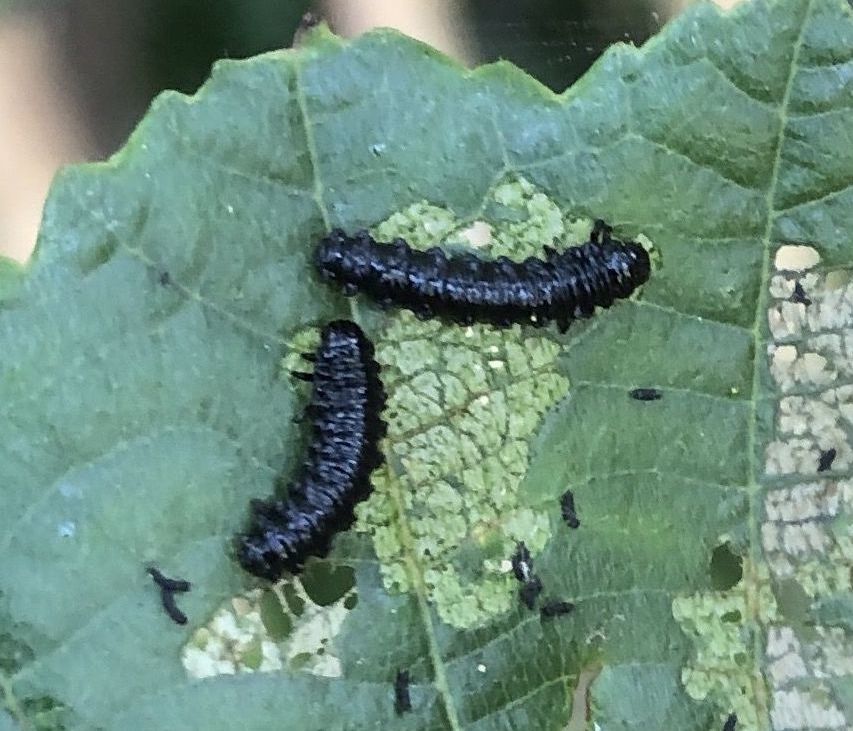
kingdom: Animalia
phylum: Arthropoda
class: Insecta
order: Coleoptera
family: Chrysomelidae
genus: Agelastica
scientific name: Agelastica alni
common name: Alder leaf beetle
